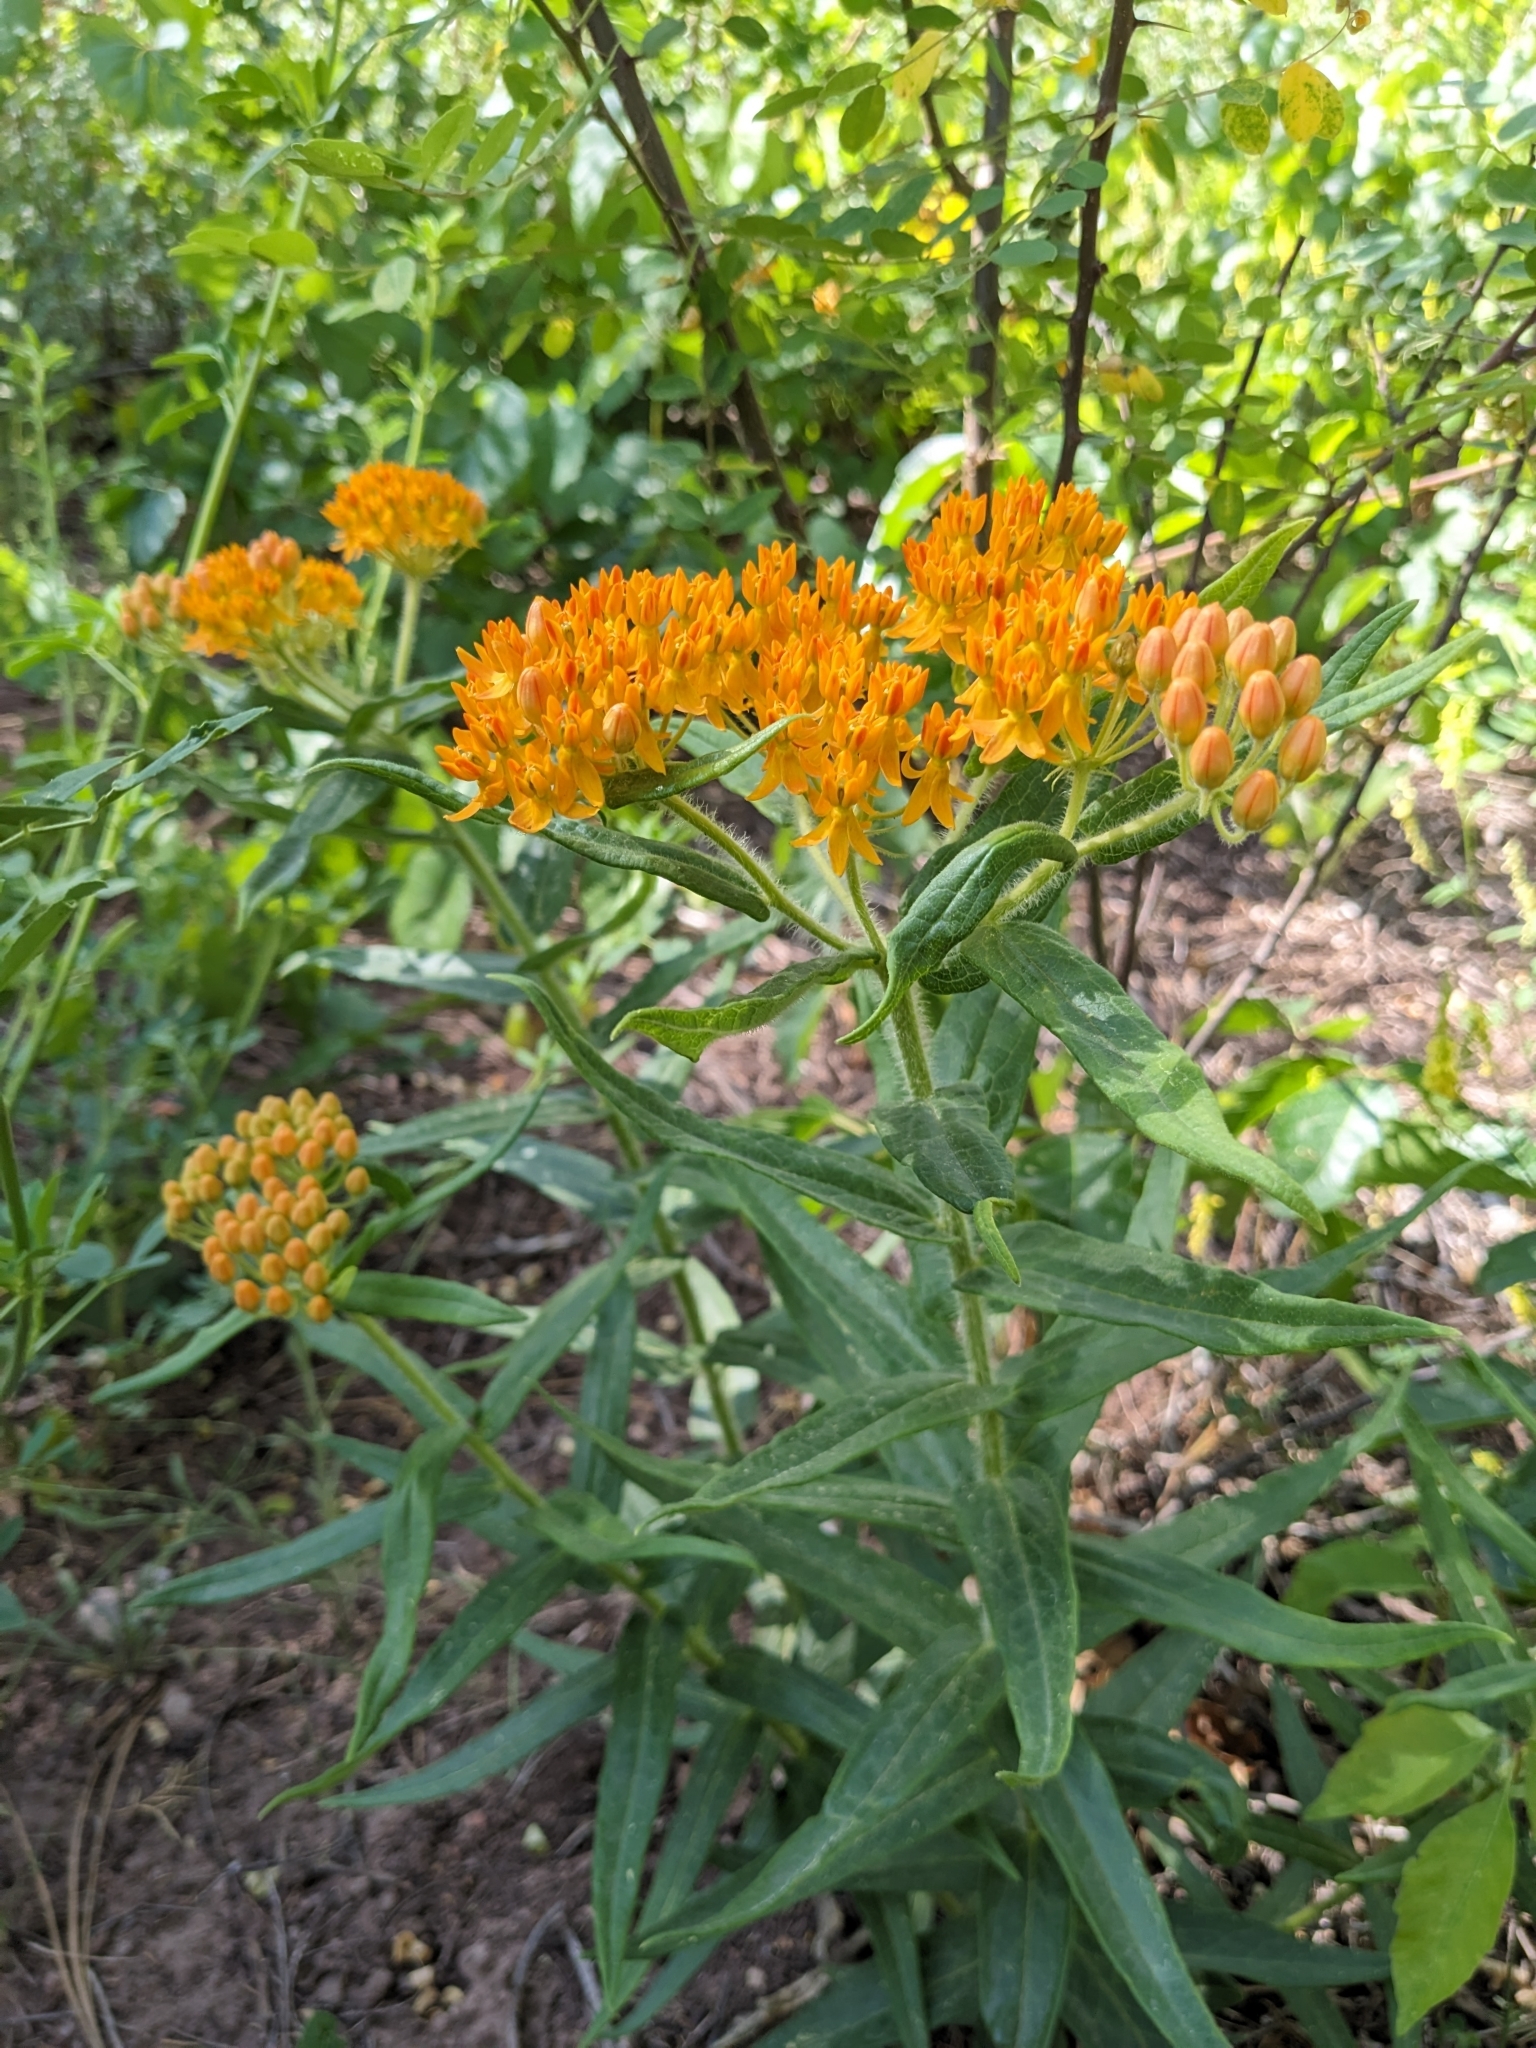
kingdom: Plantae
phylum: Tracheophyta
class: Magnoliopsida
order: Gentianales
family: Apocynaceae
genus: Asclepias
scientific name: Asclepias tuberosa
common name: Butterfly milkweed
